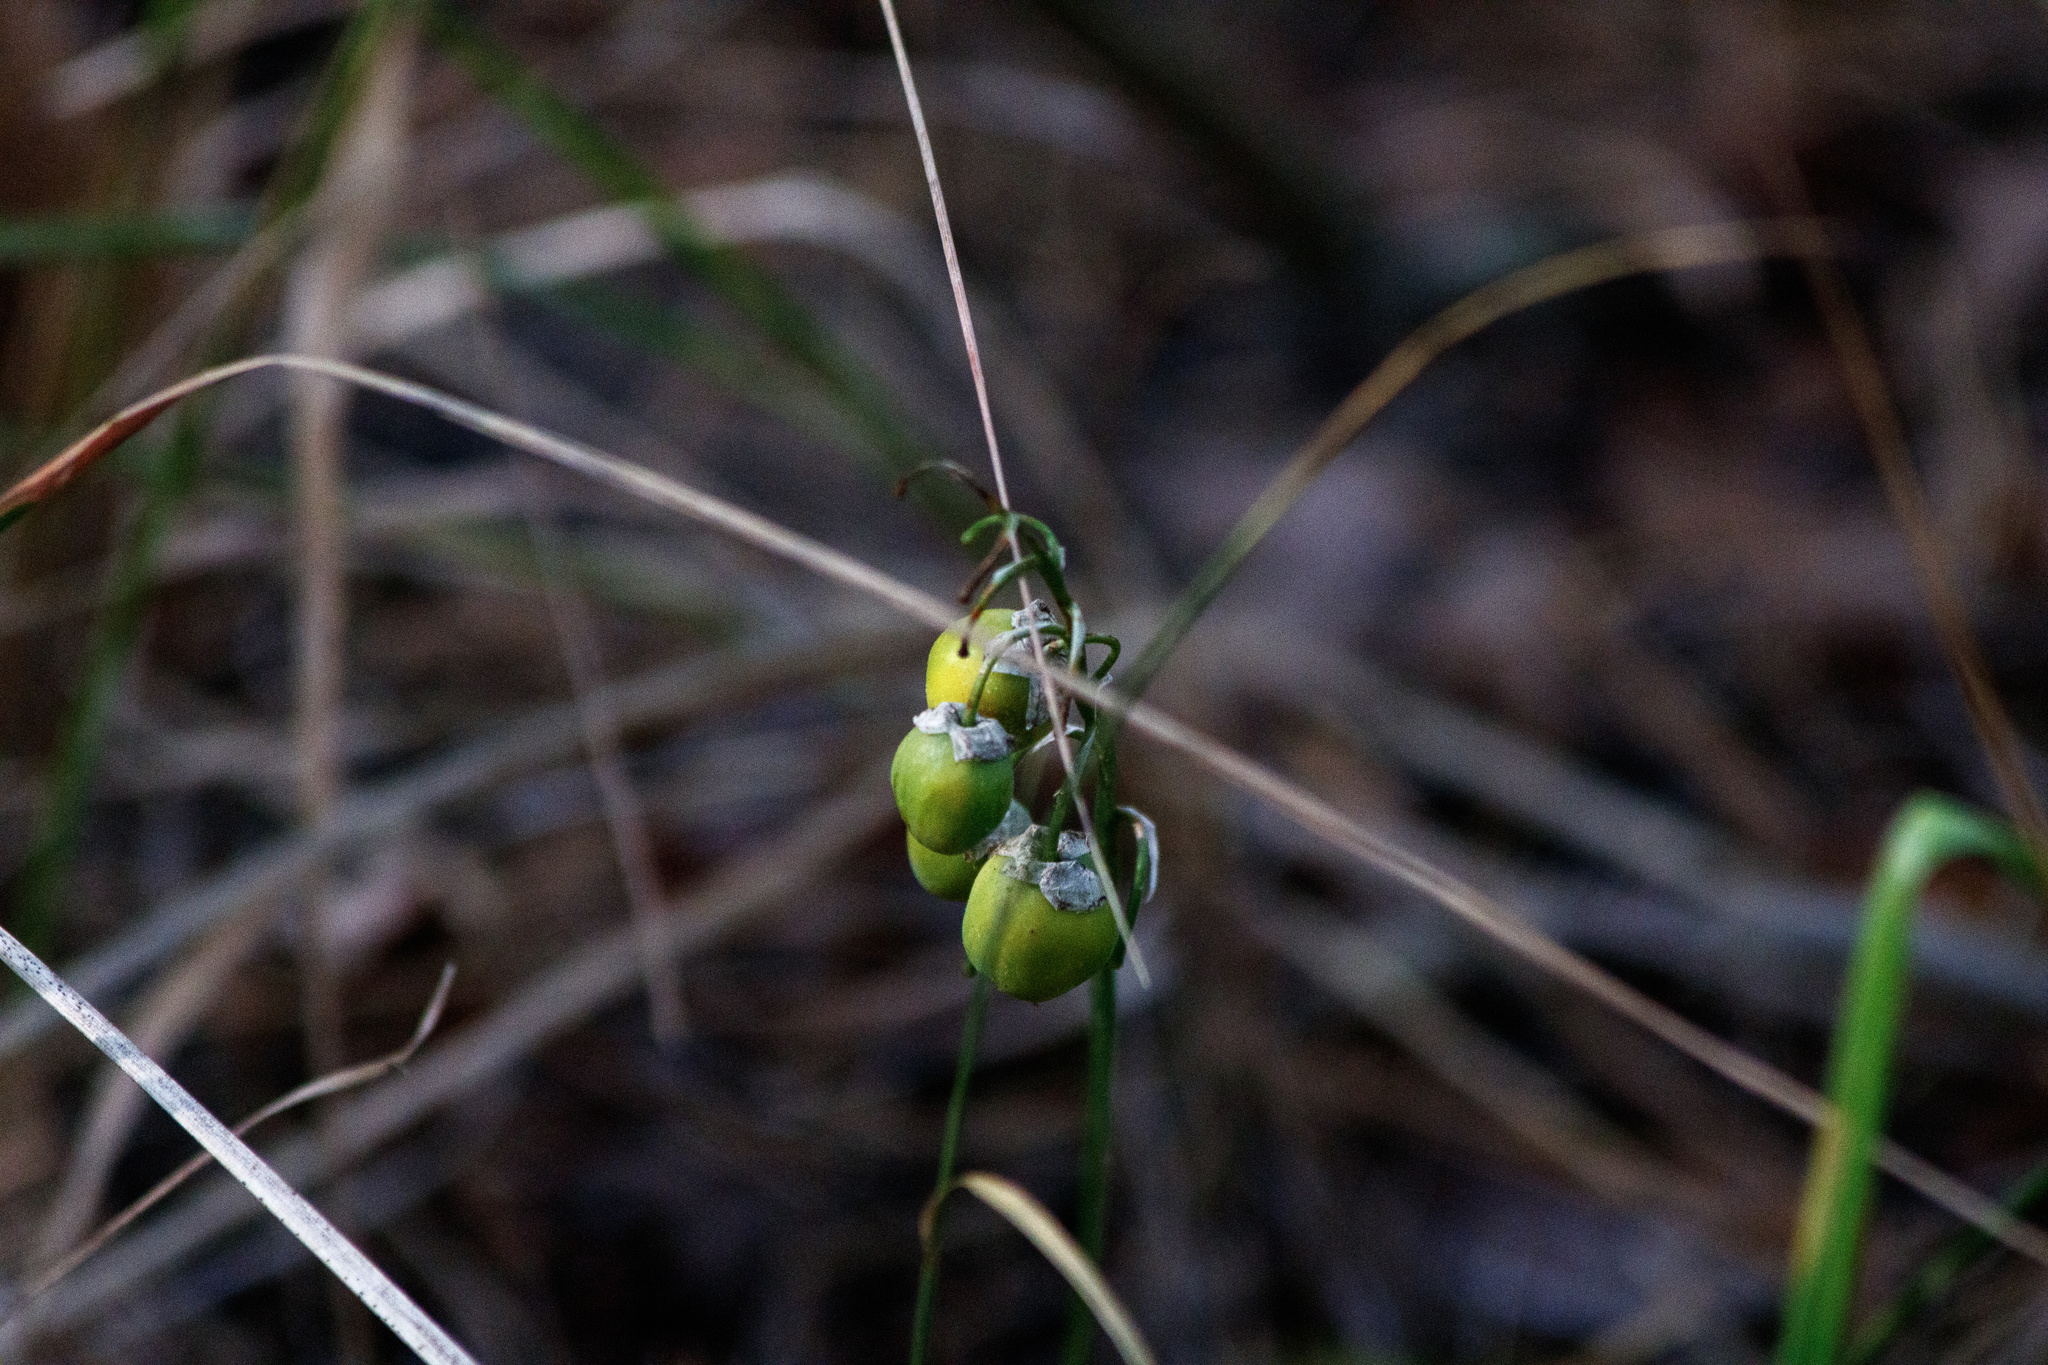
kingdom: Plantae
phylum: Tracheophyta
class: Liliopsida
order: Asparagales
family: Asparagaceae
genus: Convallaria
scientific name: Convallaria majalis
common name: Lily-of-the-valley
